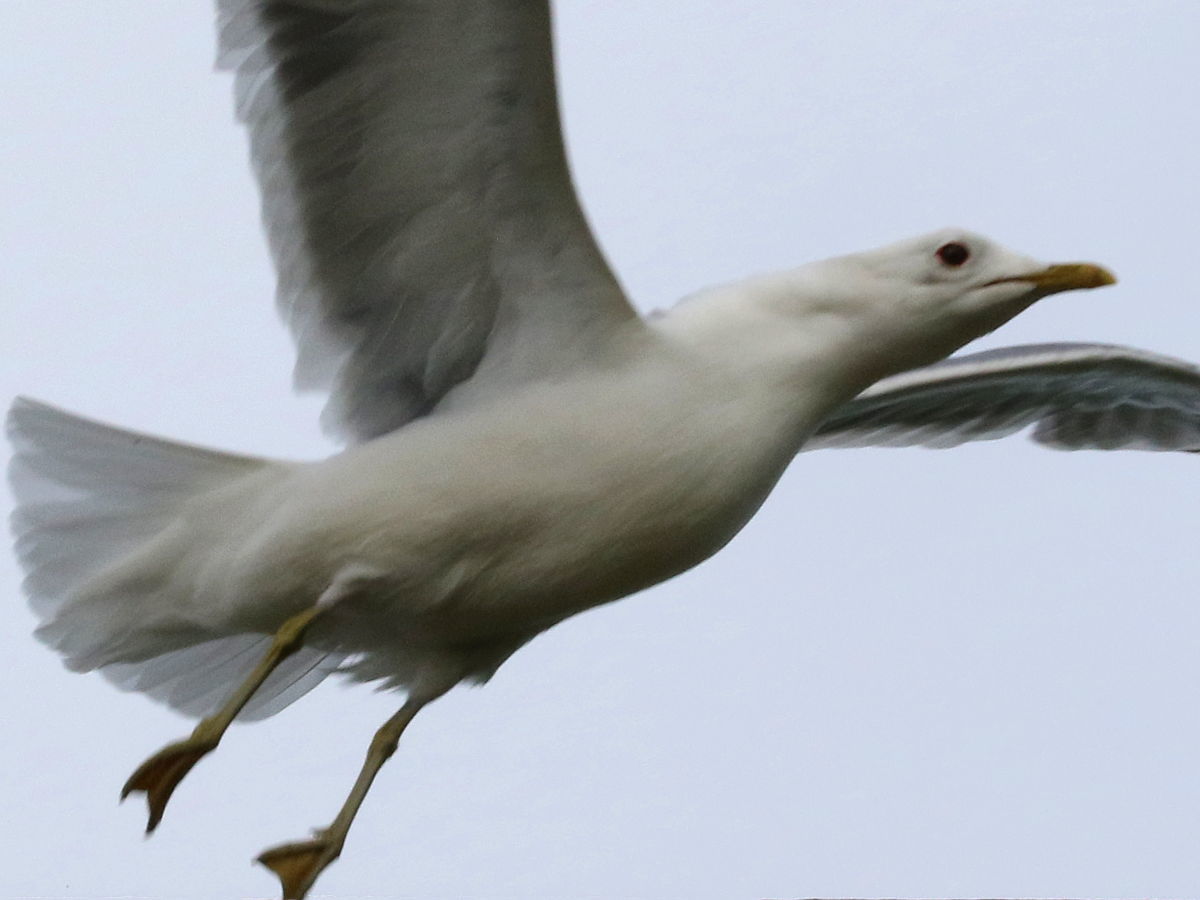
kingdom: Animalia
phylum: Chordata
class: Aves
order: Charadriiformes
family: Laridae
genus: Larus
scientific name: Larus canus
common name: Mew gull
